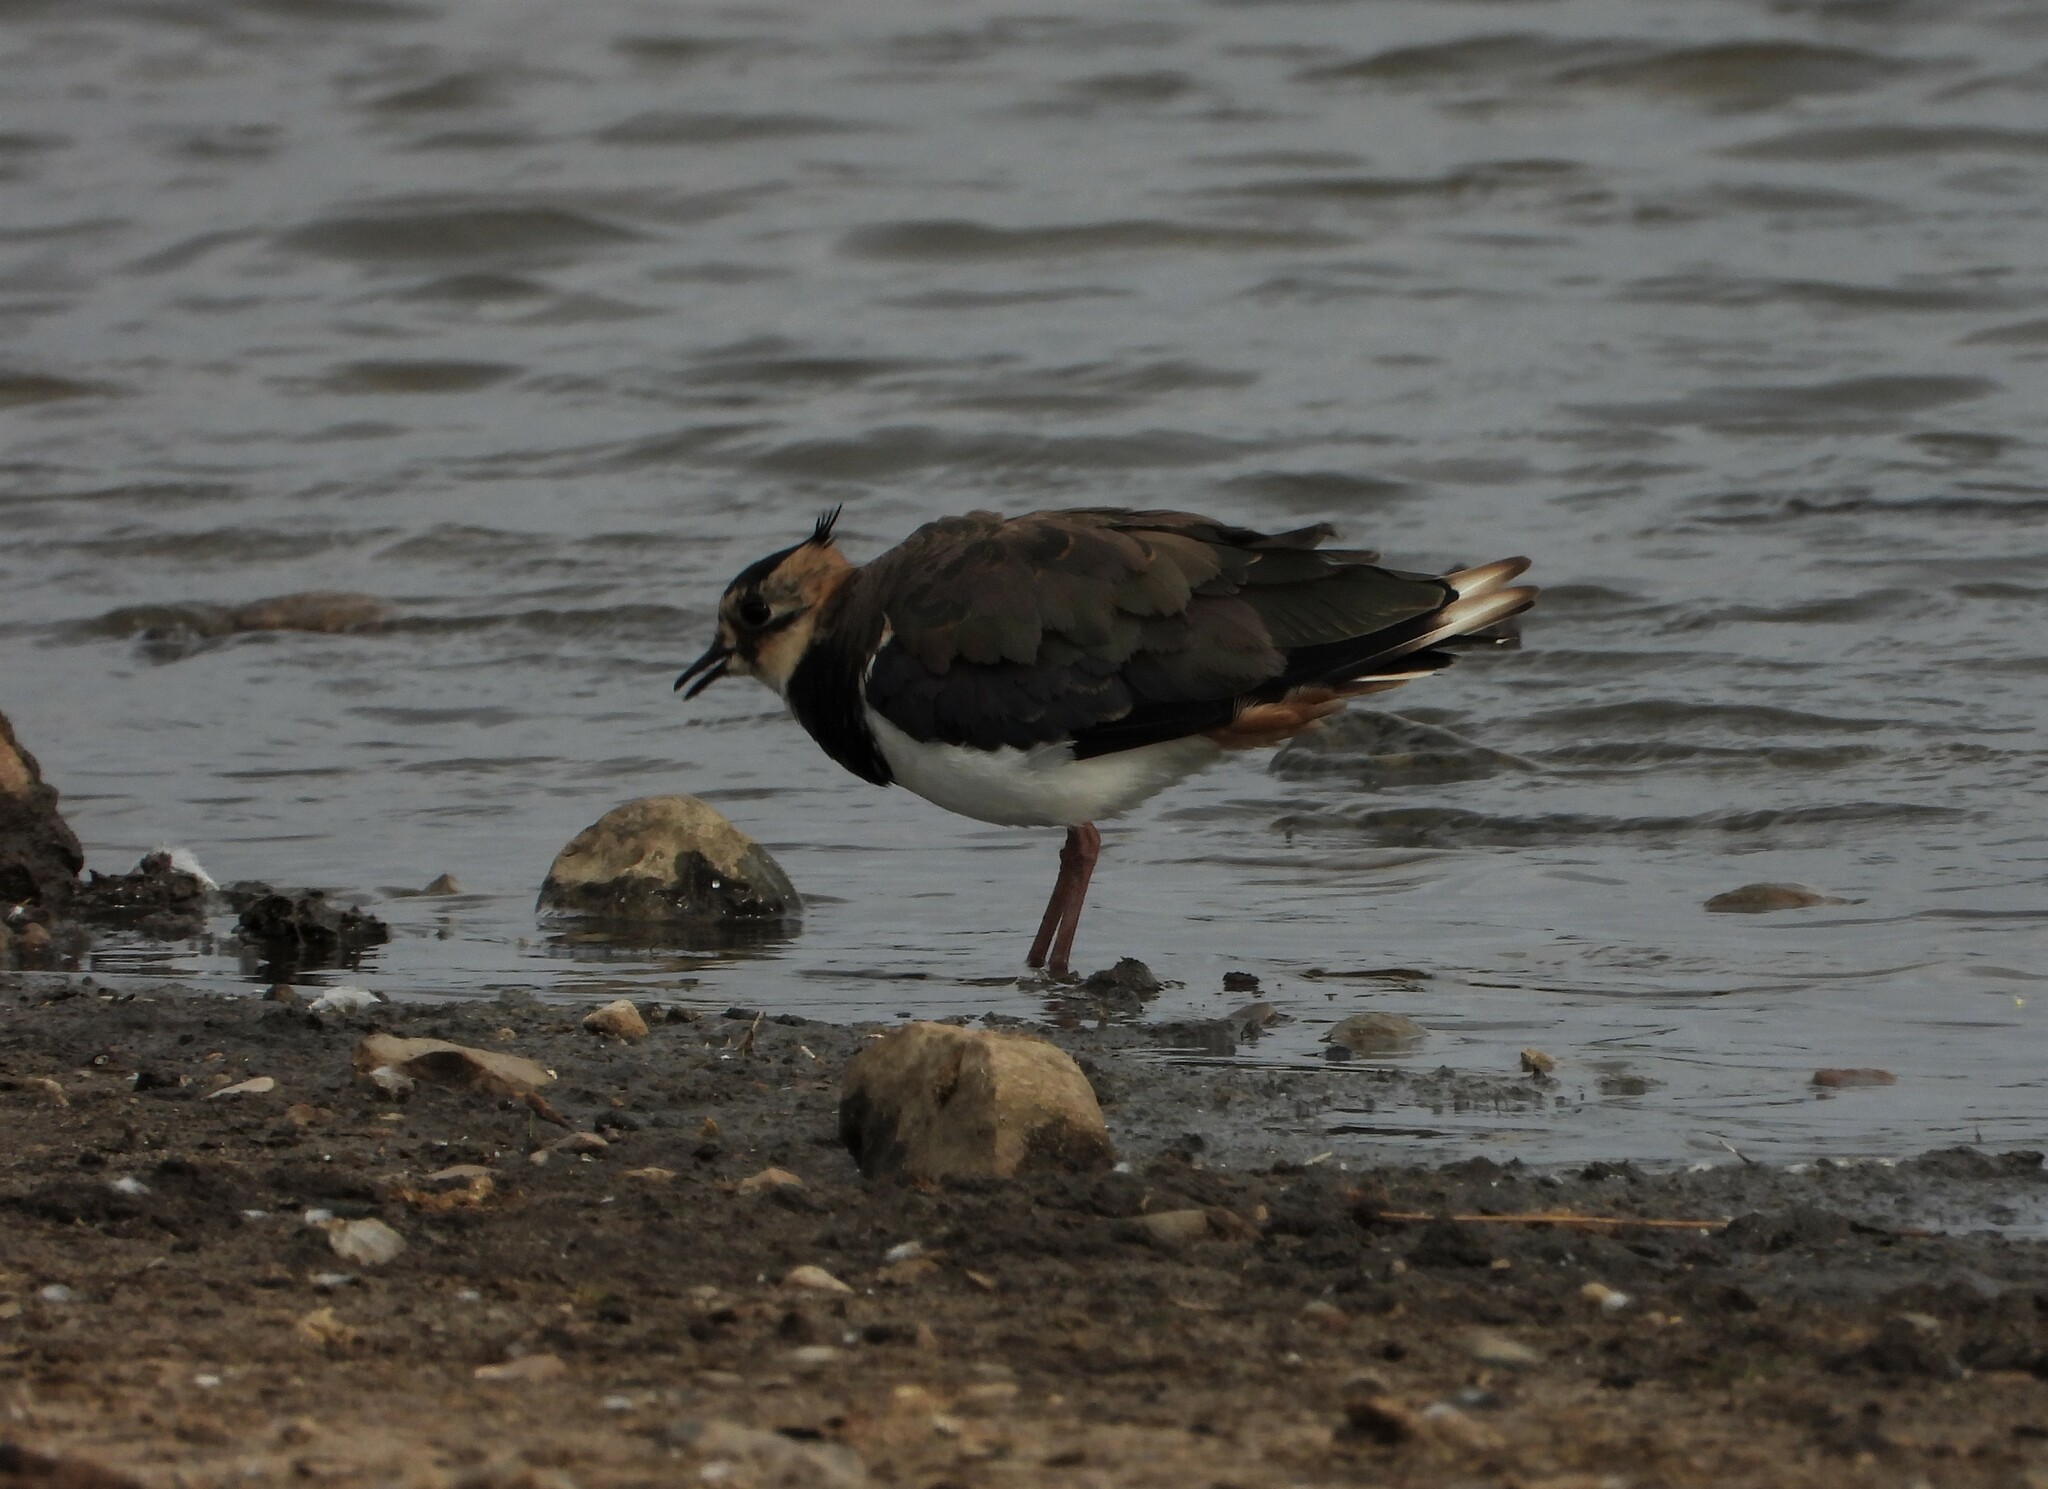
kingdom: Animalia
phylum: Chordata
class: Aves
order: Charadriiformes
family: Charadriidae
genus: Vanellus
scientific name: Vanellus vanellus
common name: Northern lapwing
